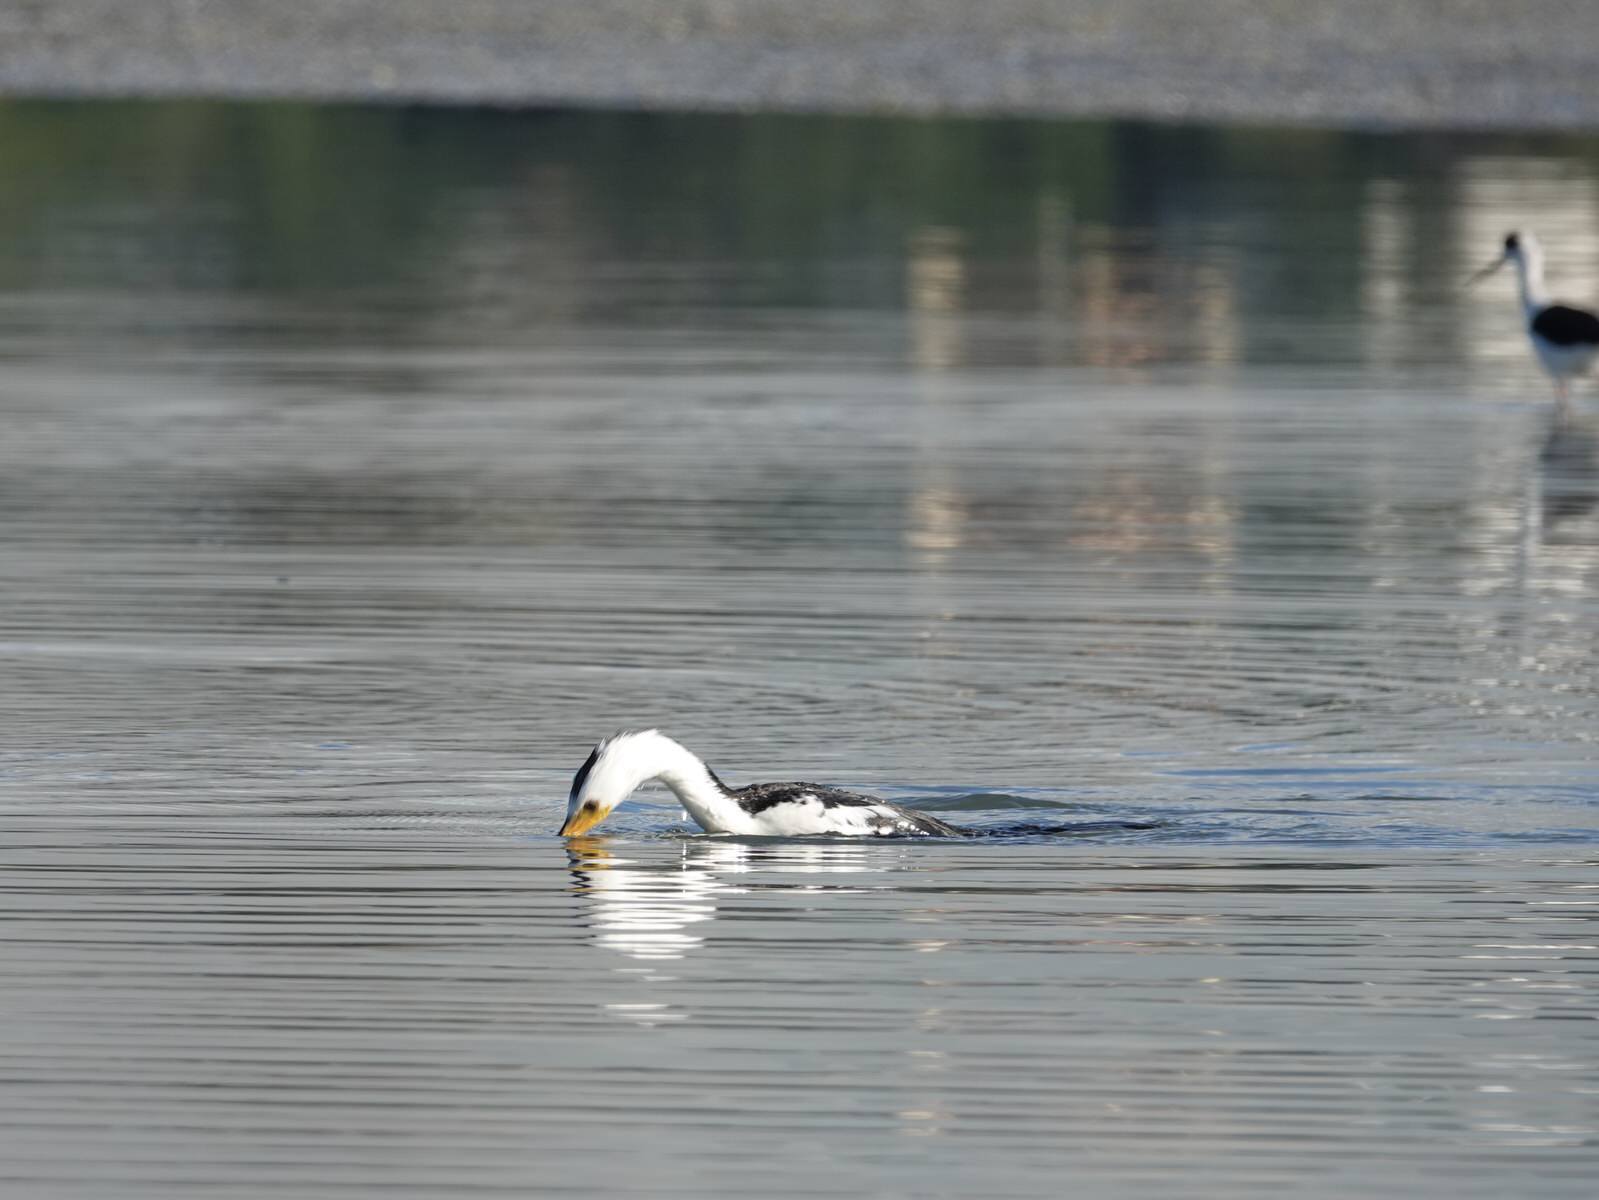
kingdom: Animalia
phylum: Chordata
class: Aves
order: Suliformes
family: Phalacrocoracidae
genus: Microcarbo
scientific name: Microcarbo melanoleucos
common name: Little pied cormorant
